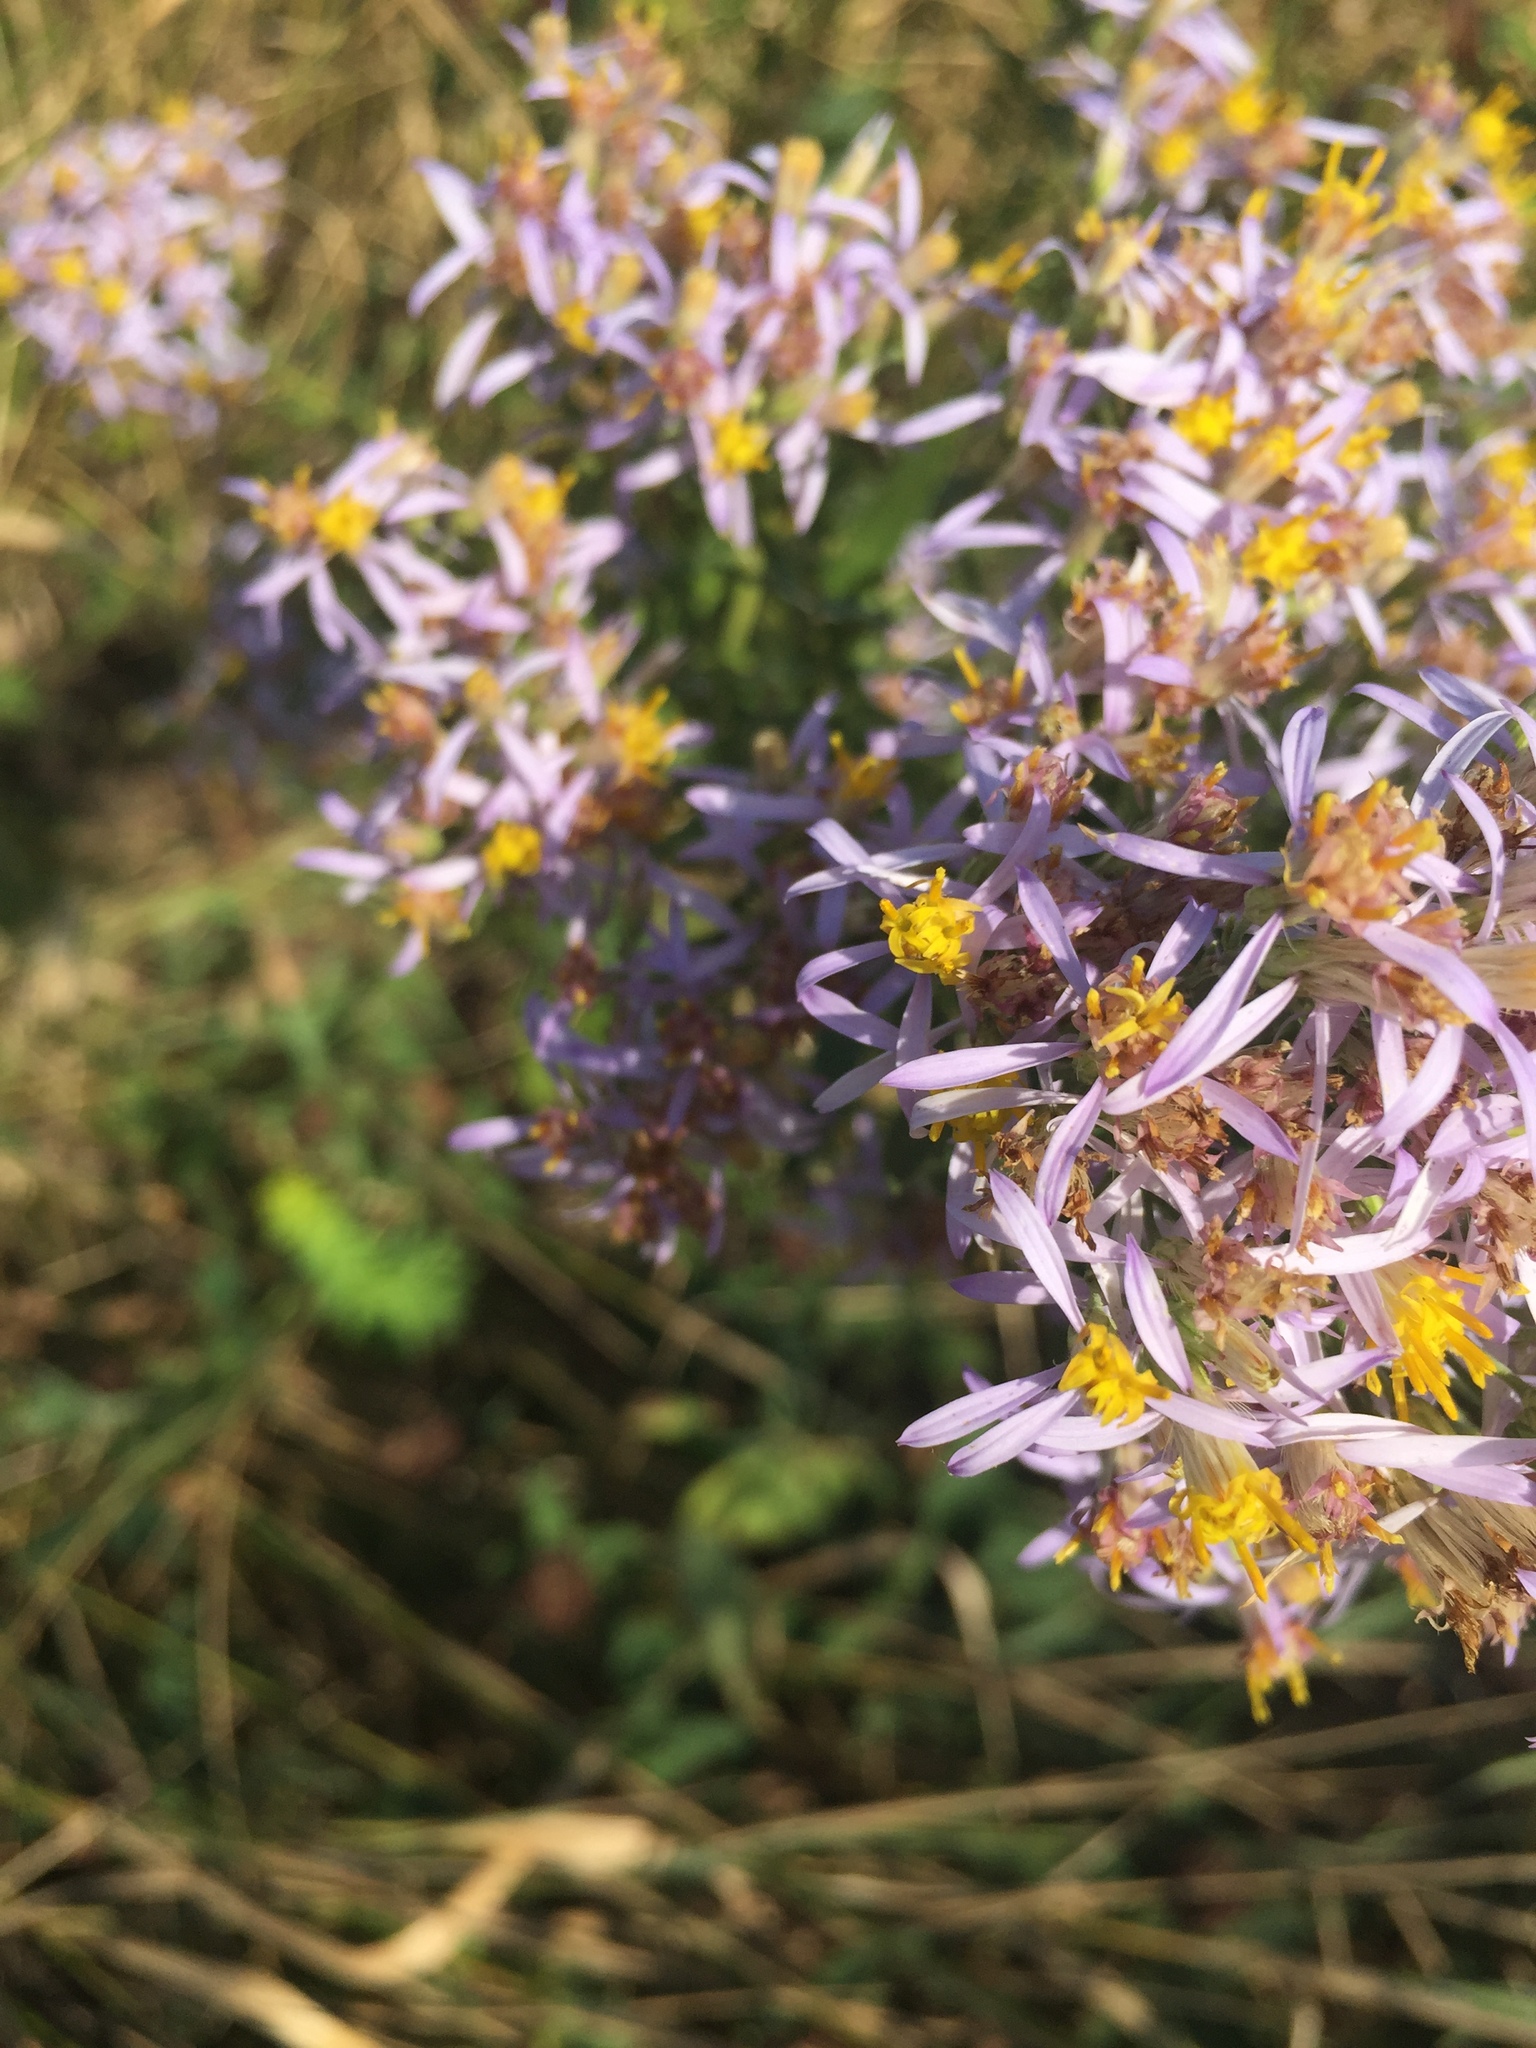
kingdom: Plantae
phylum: Tracheophyta
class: Magnoliopsida
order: Asterales
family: Asteraceae
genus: Galatella
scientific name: Galatella sedifolia
